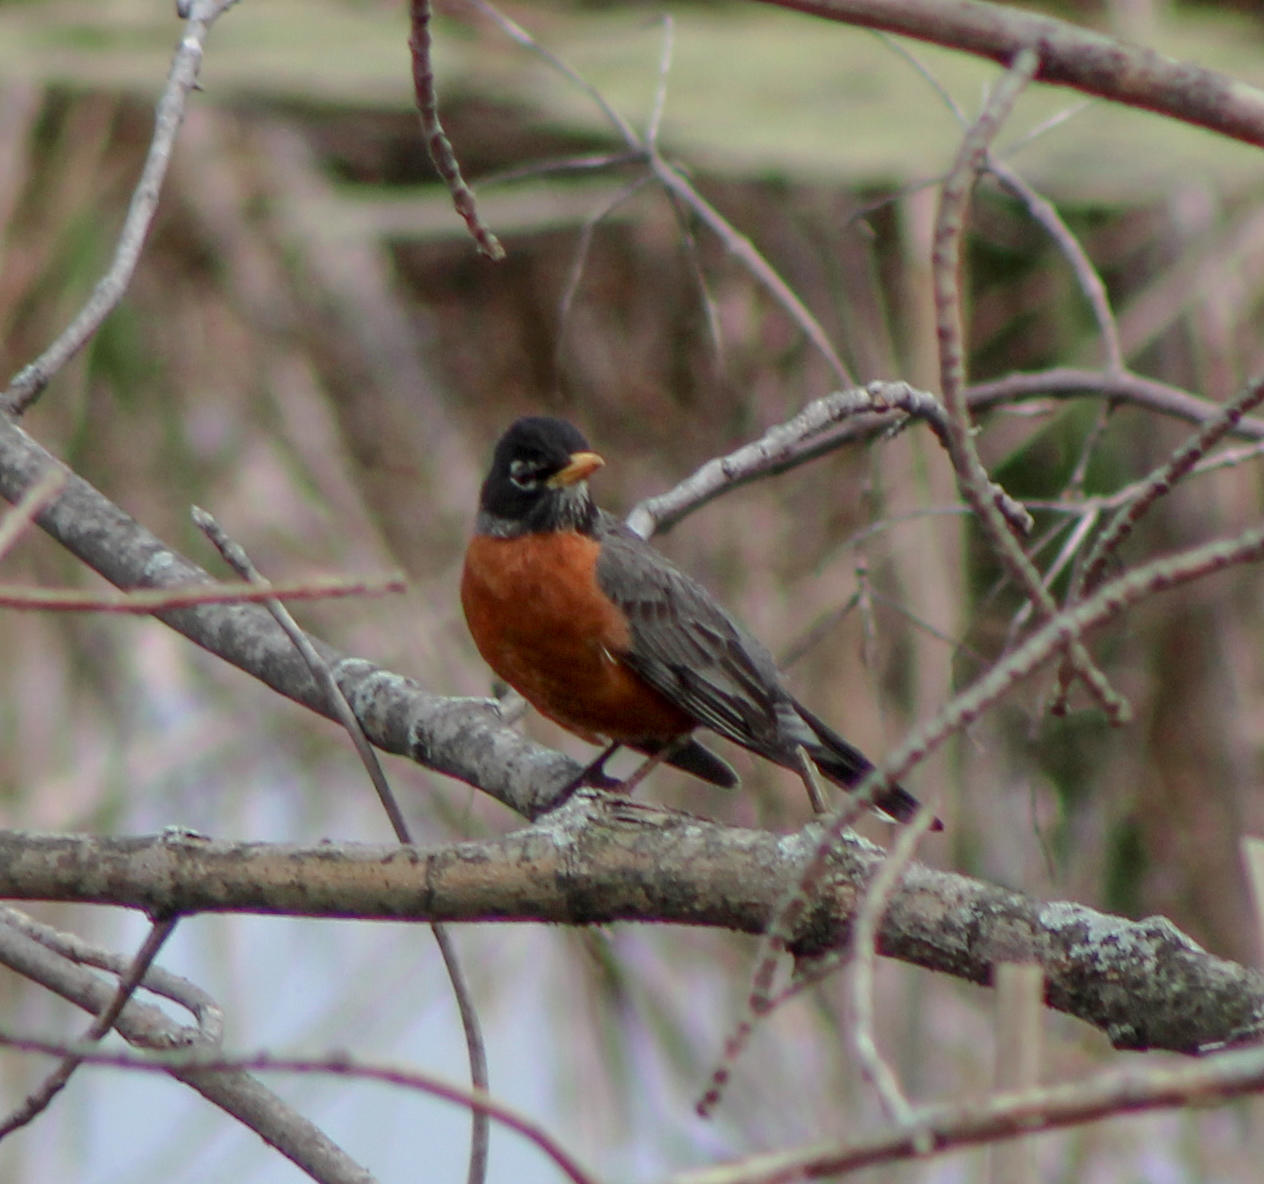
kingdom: Animalia
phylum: Chordata
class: Aves
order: Passeriformes
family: Turdidae
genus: Turdus
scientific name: Turdus migratorius
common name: American robin
